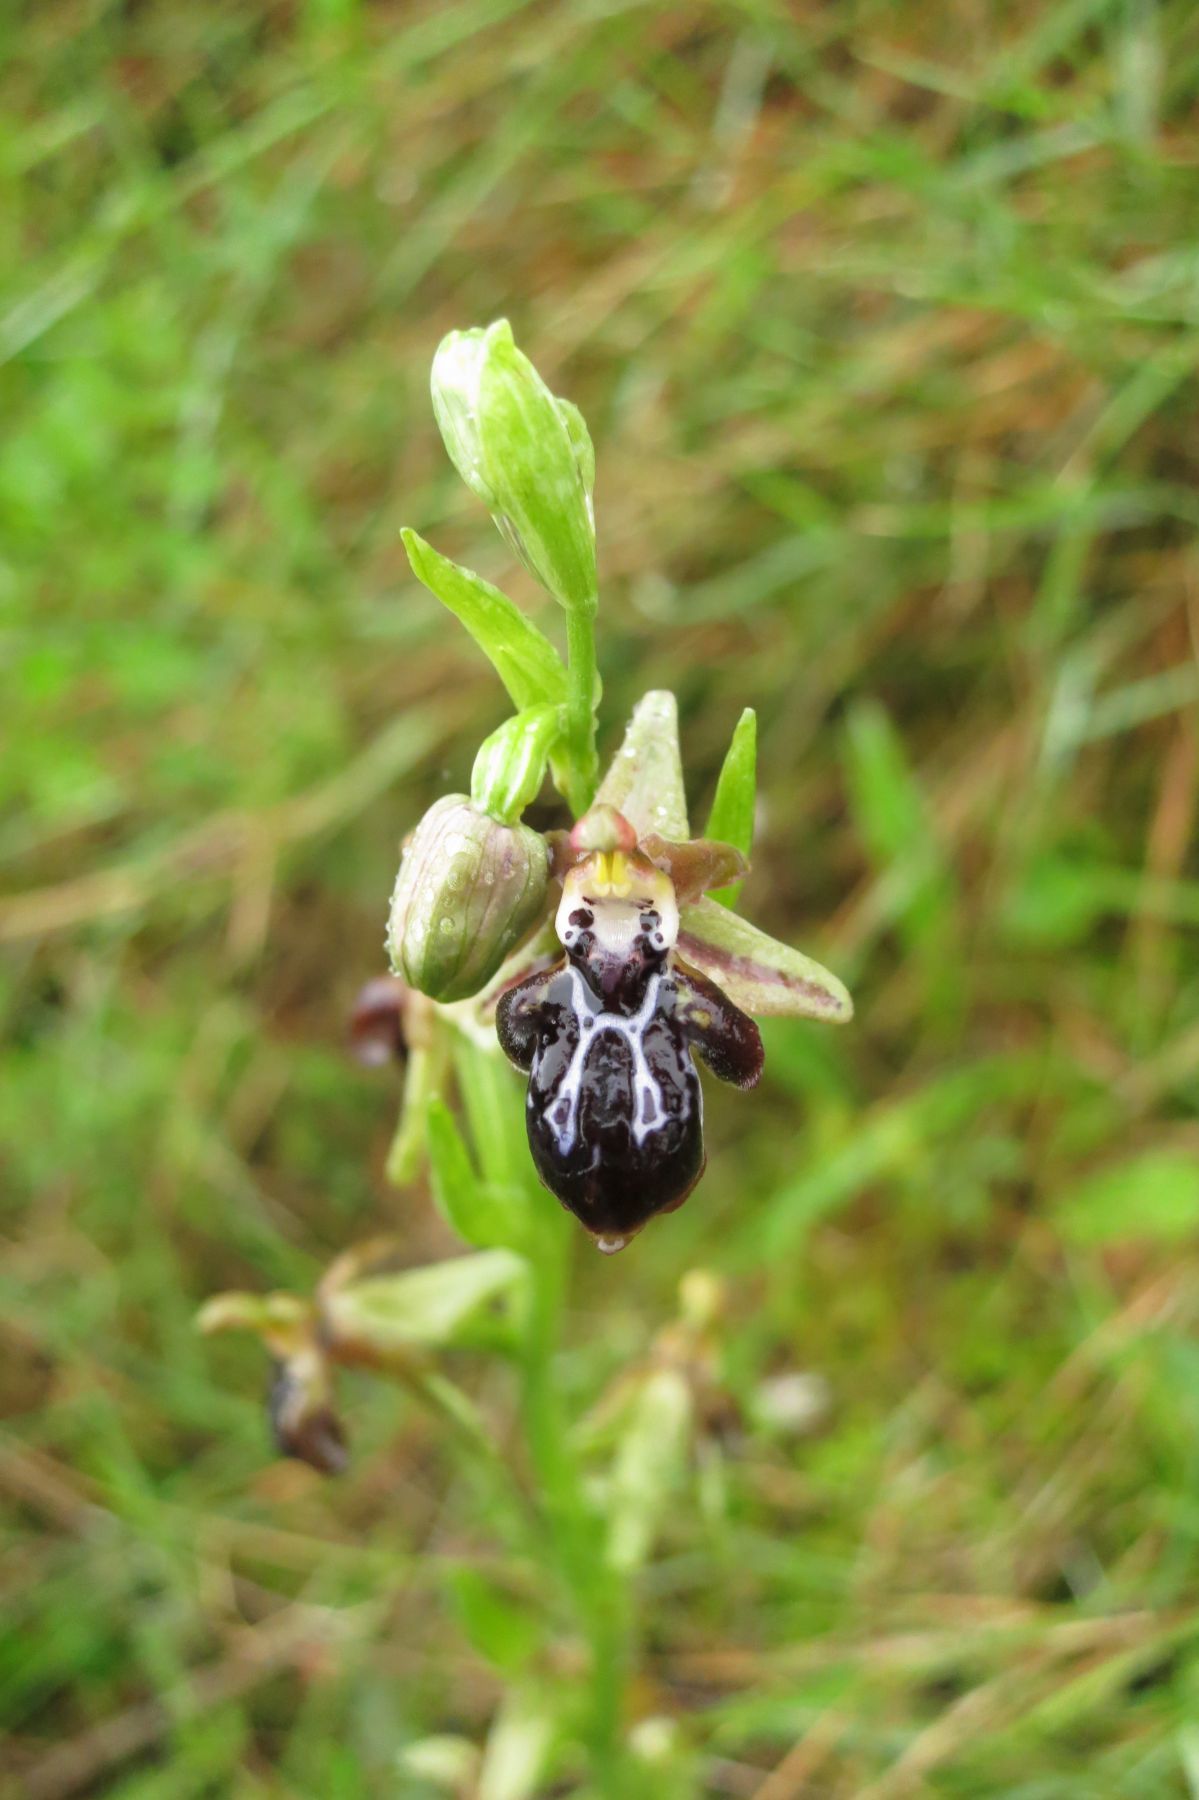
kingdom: Plantae
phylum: Tracheophyta
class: Liliopsida
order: Asparagales
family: Orchidaceae
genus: Ophrys
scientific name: Ophrys cretica
